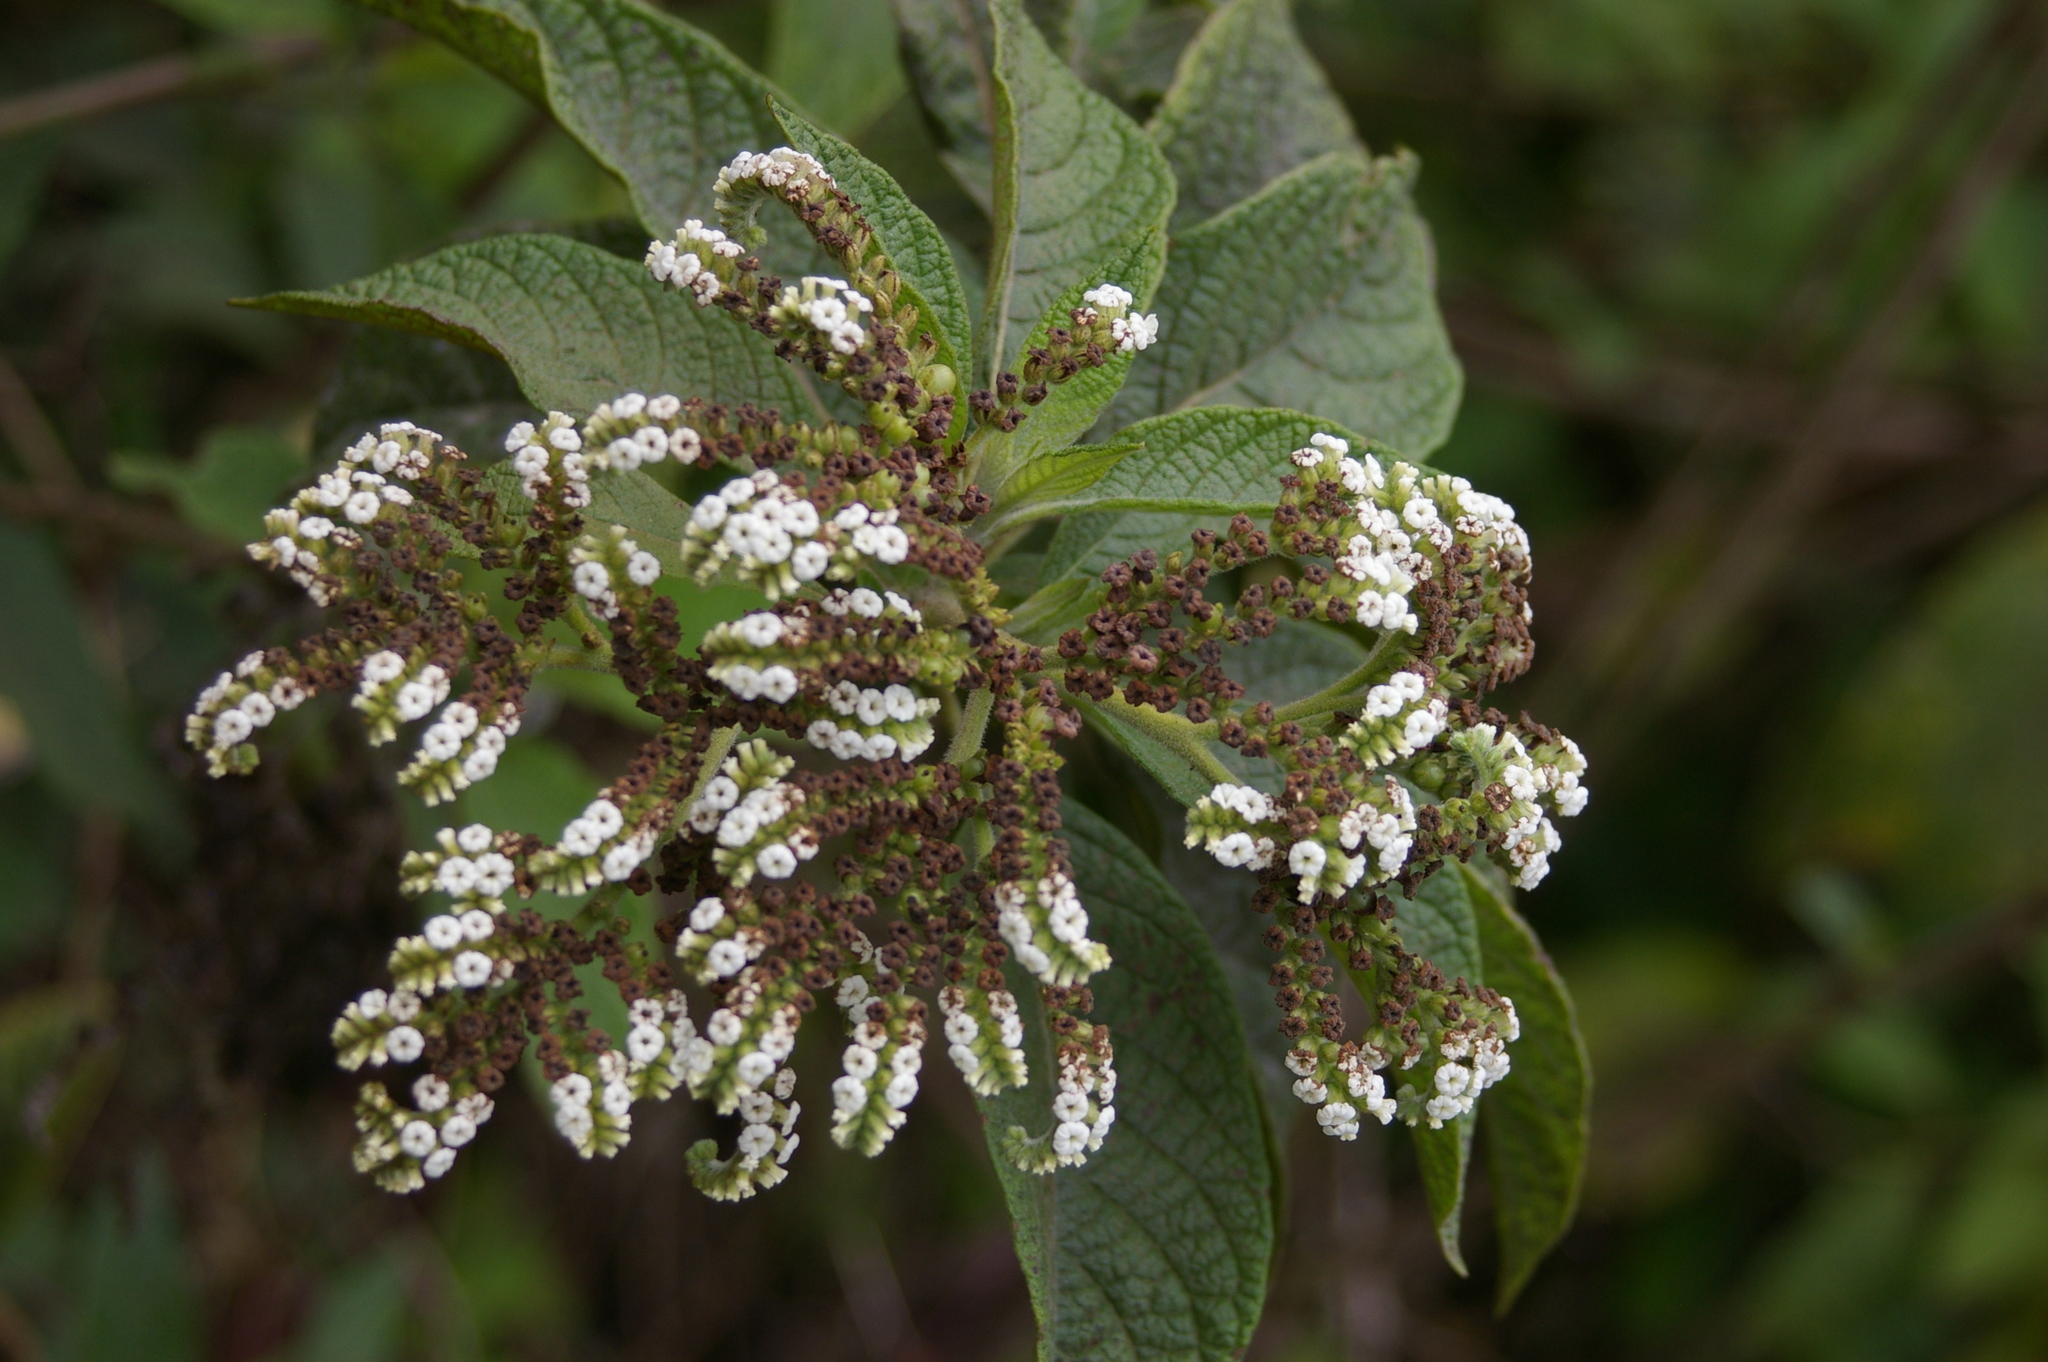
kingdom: Plantae
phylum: Tracheophyta
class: Magnoliopsida
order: Boraginales
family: Heliotropiaceae
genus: Tournefortia
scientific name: Tournefortia rufosericea
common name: Rufous-haired tournefortia
